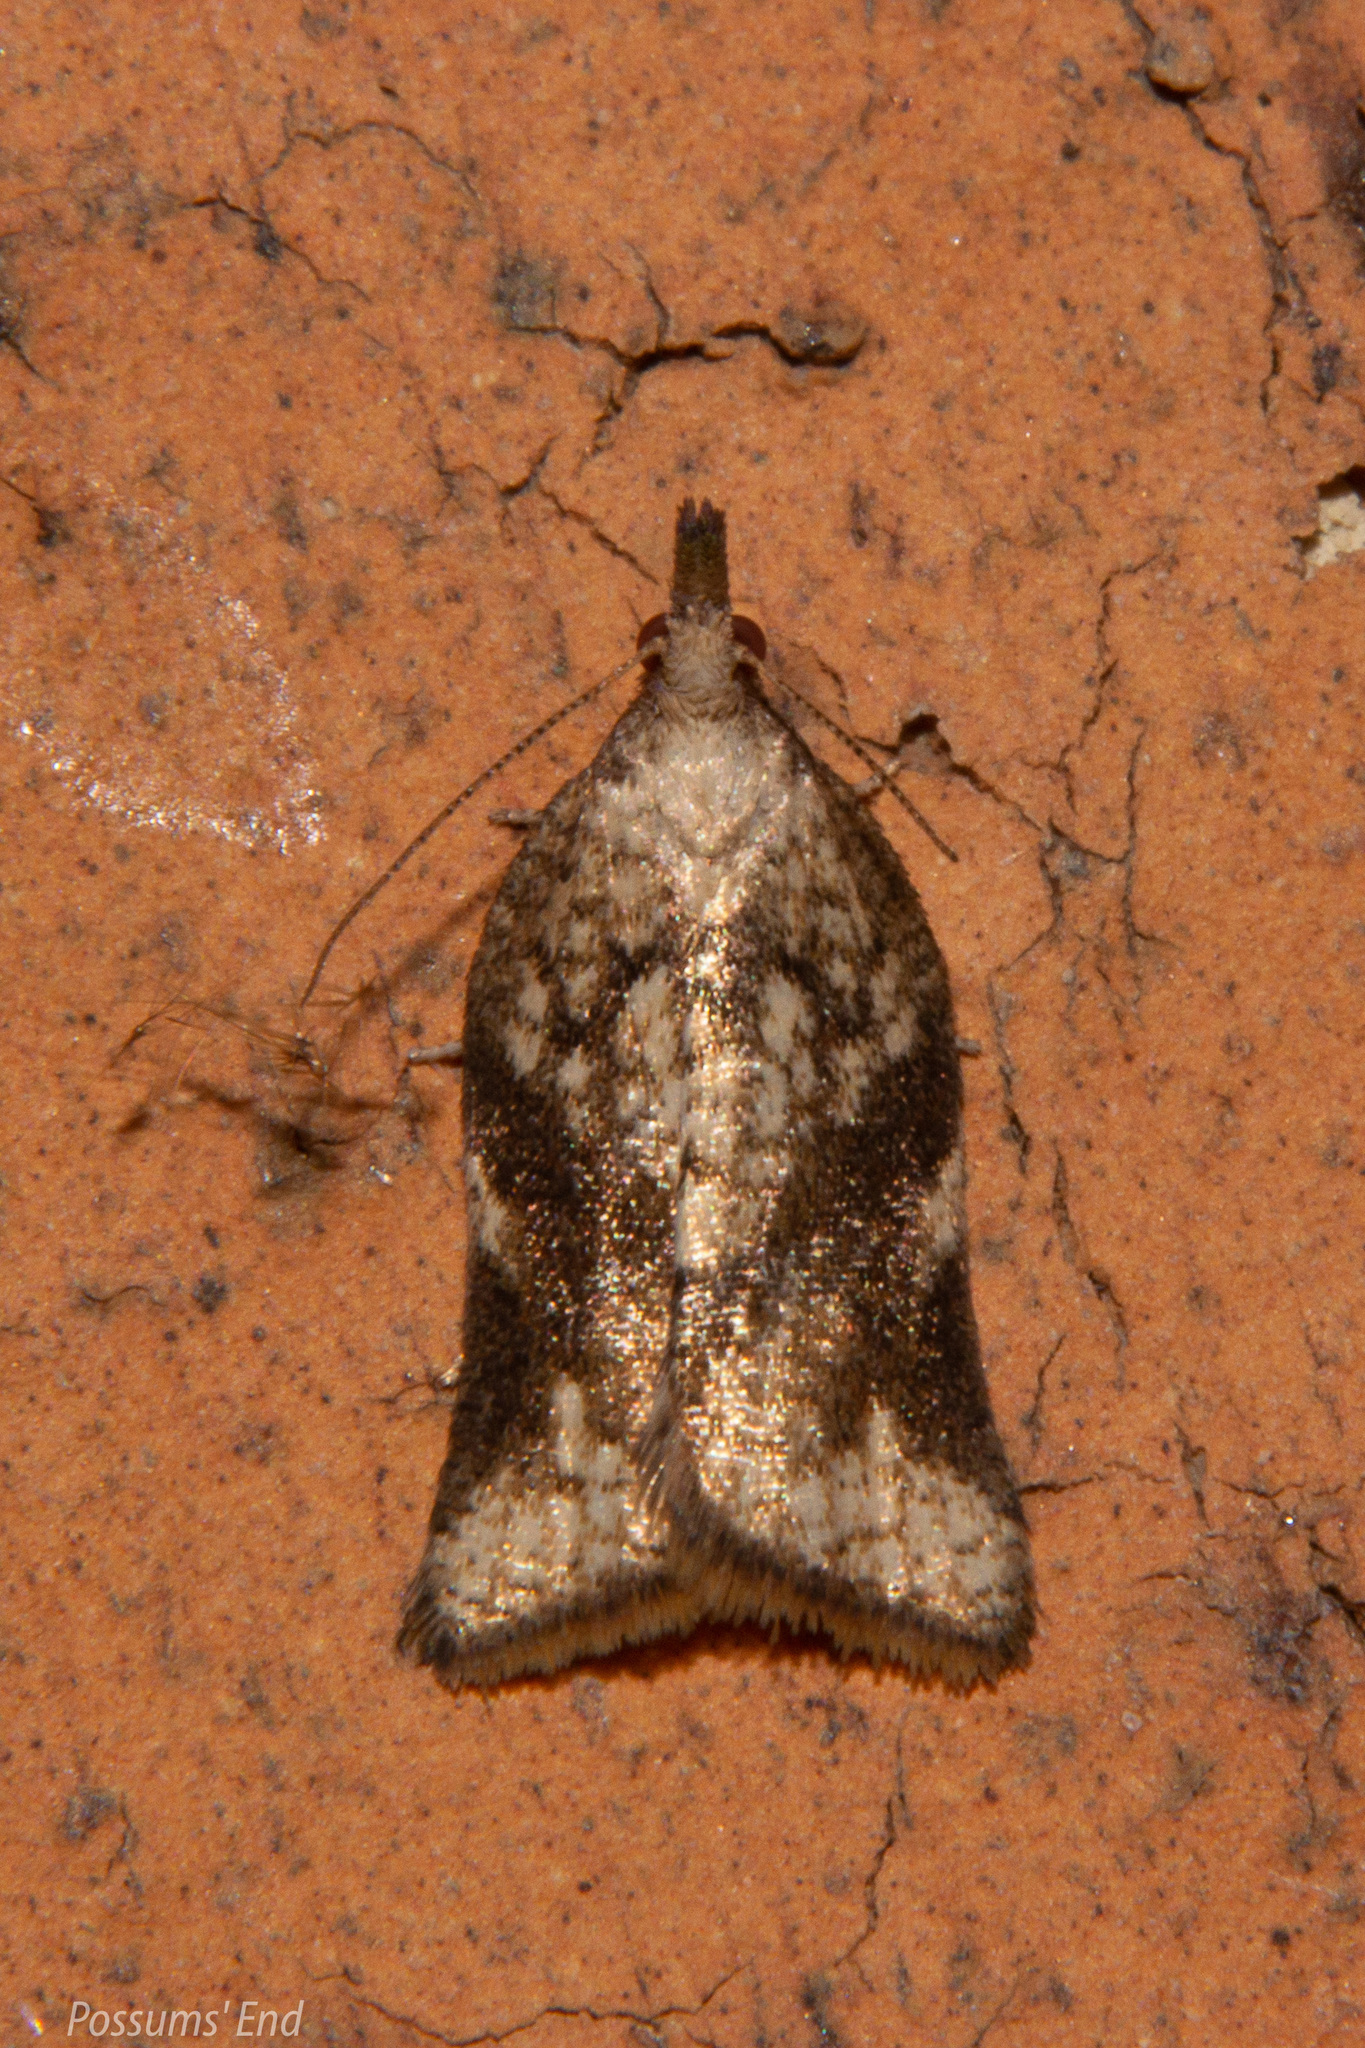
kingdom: Animalia
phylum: Arthropoda
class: Insecta
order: Lepidoptera
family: Tortricidae
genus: Catamacta
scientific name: Catamacta gavisana
